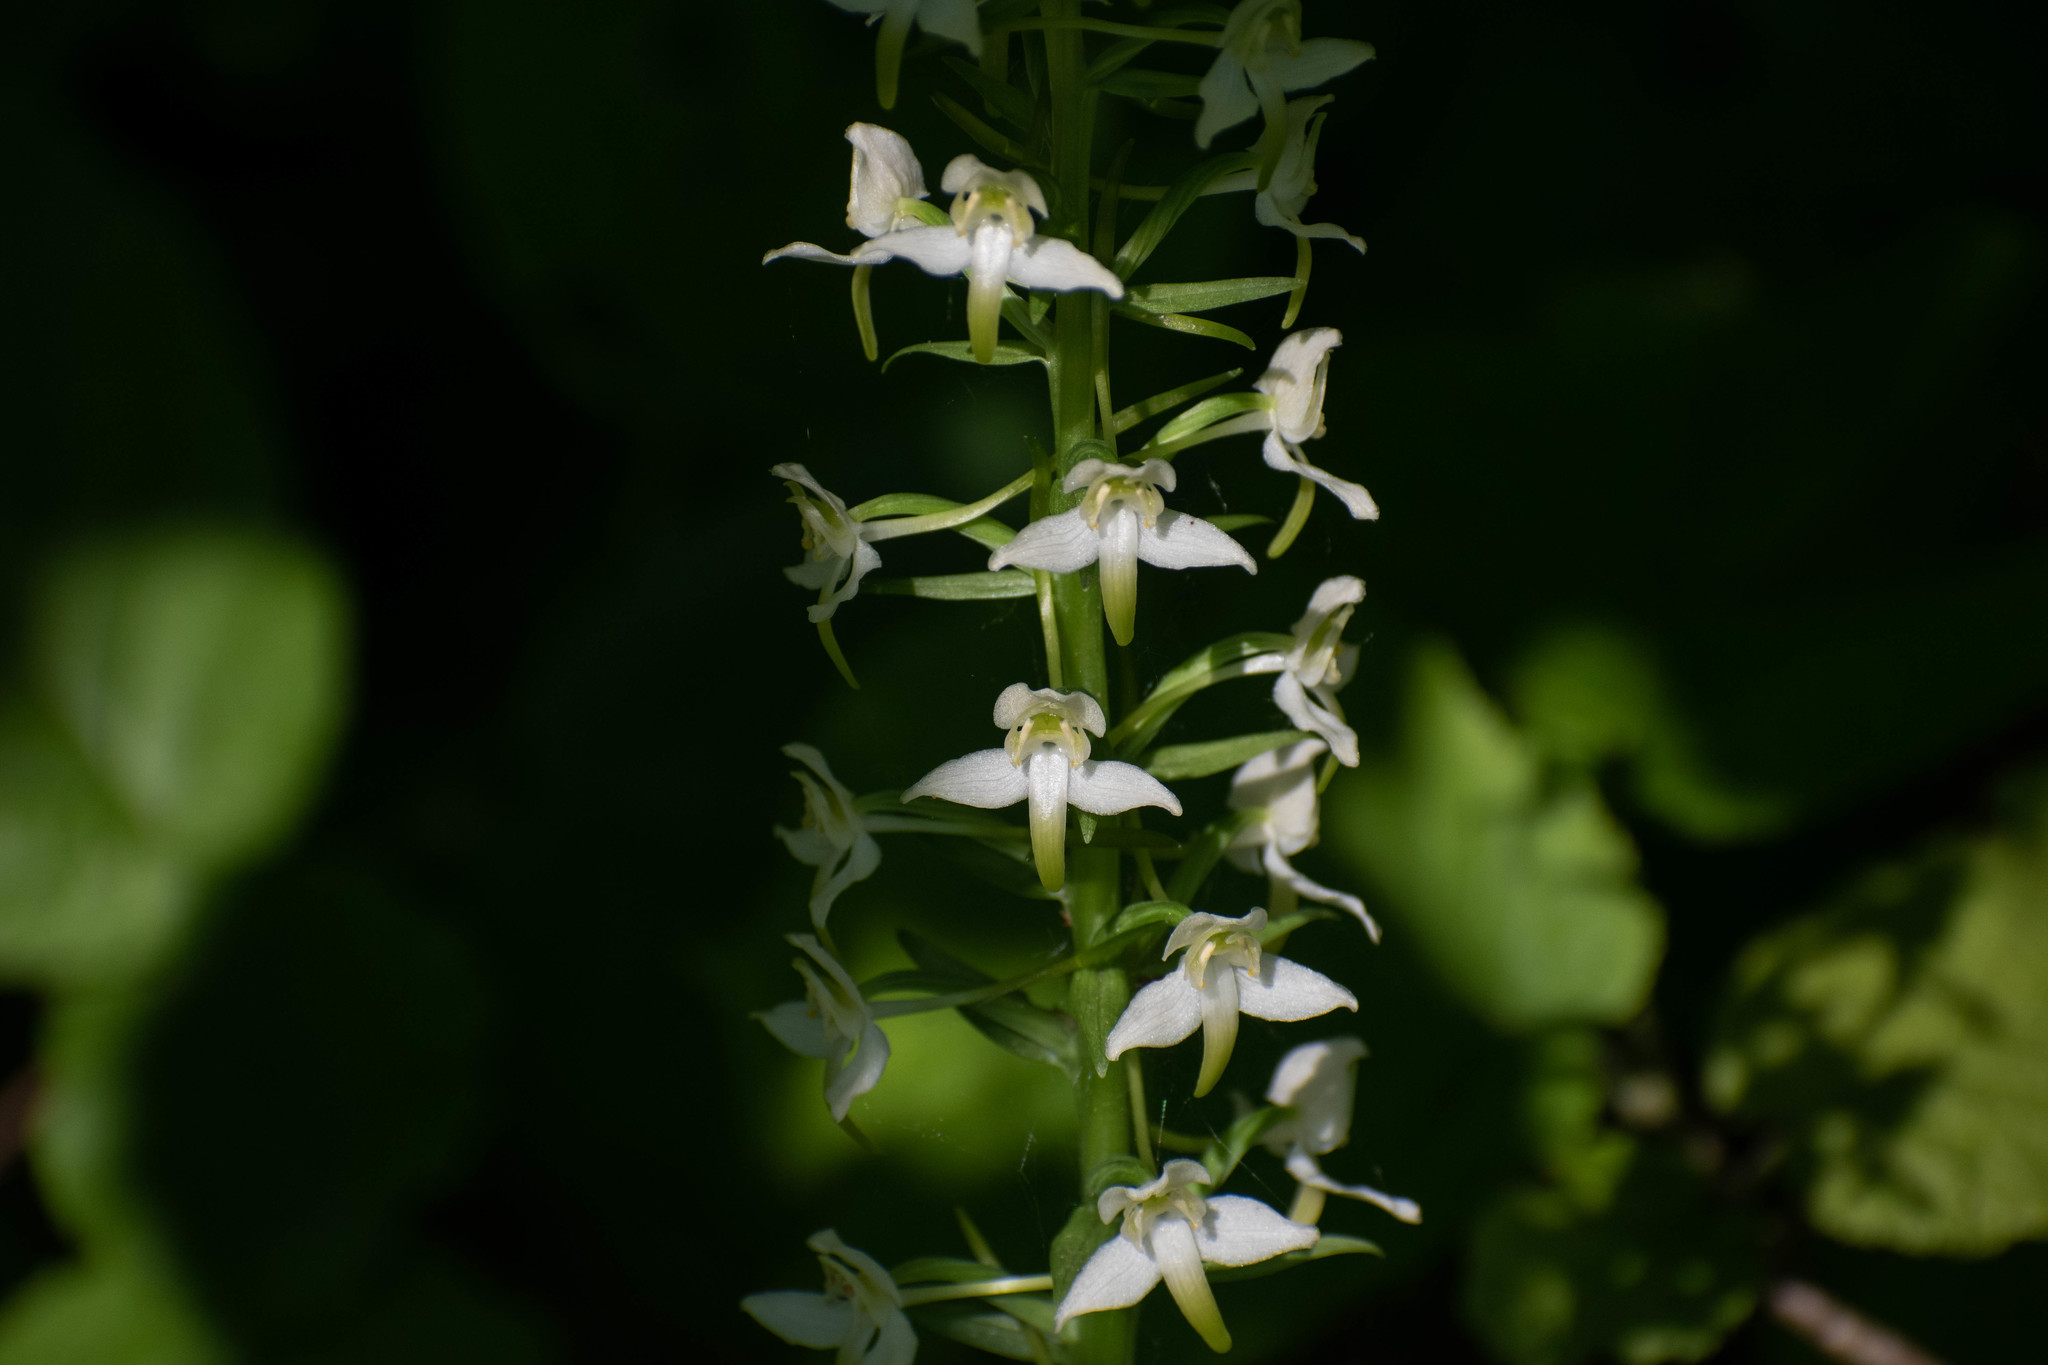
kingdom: Plantae
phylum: Tracheophyta
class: Liliopsida
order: Asparagales
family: Orchidaceae
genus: Platanthera
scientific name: Platanthera chlorantha
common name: Greater butterfly-orchid
